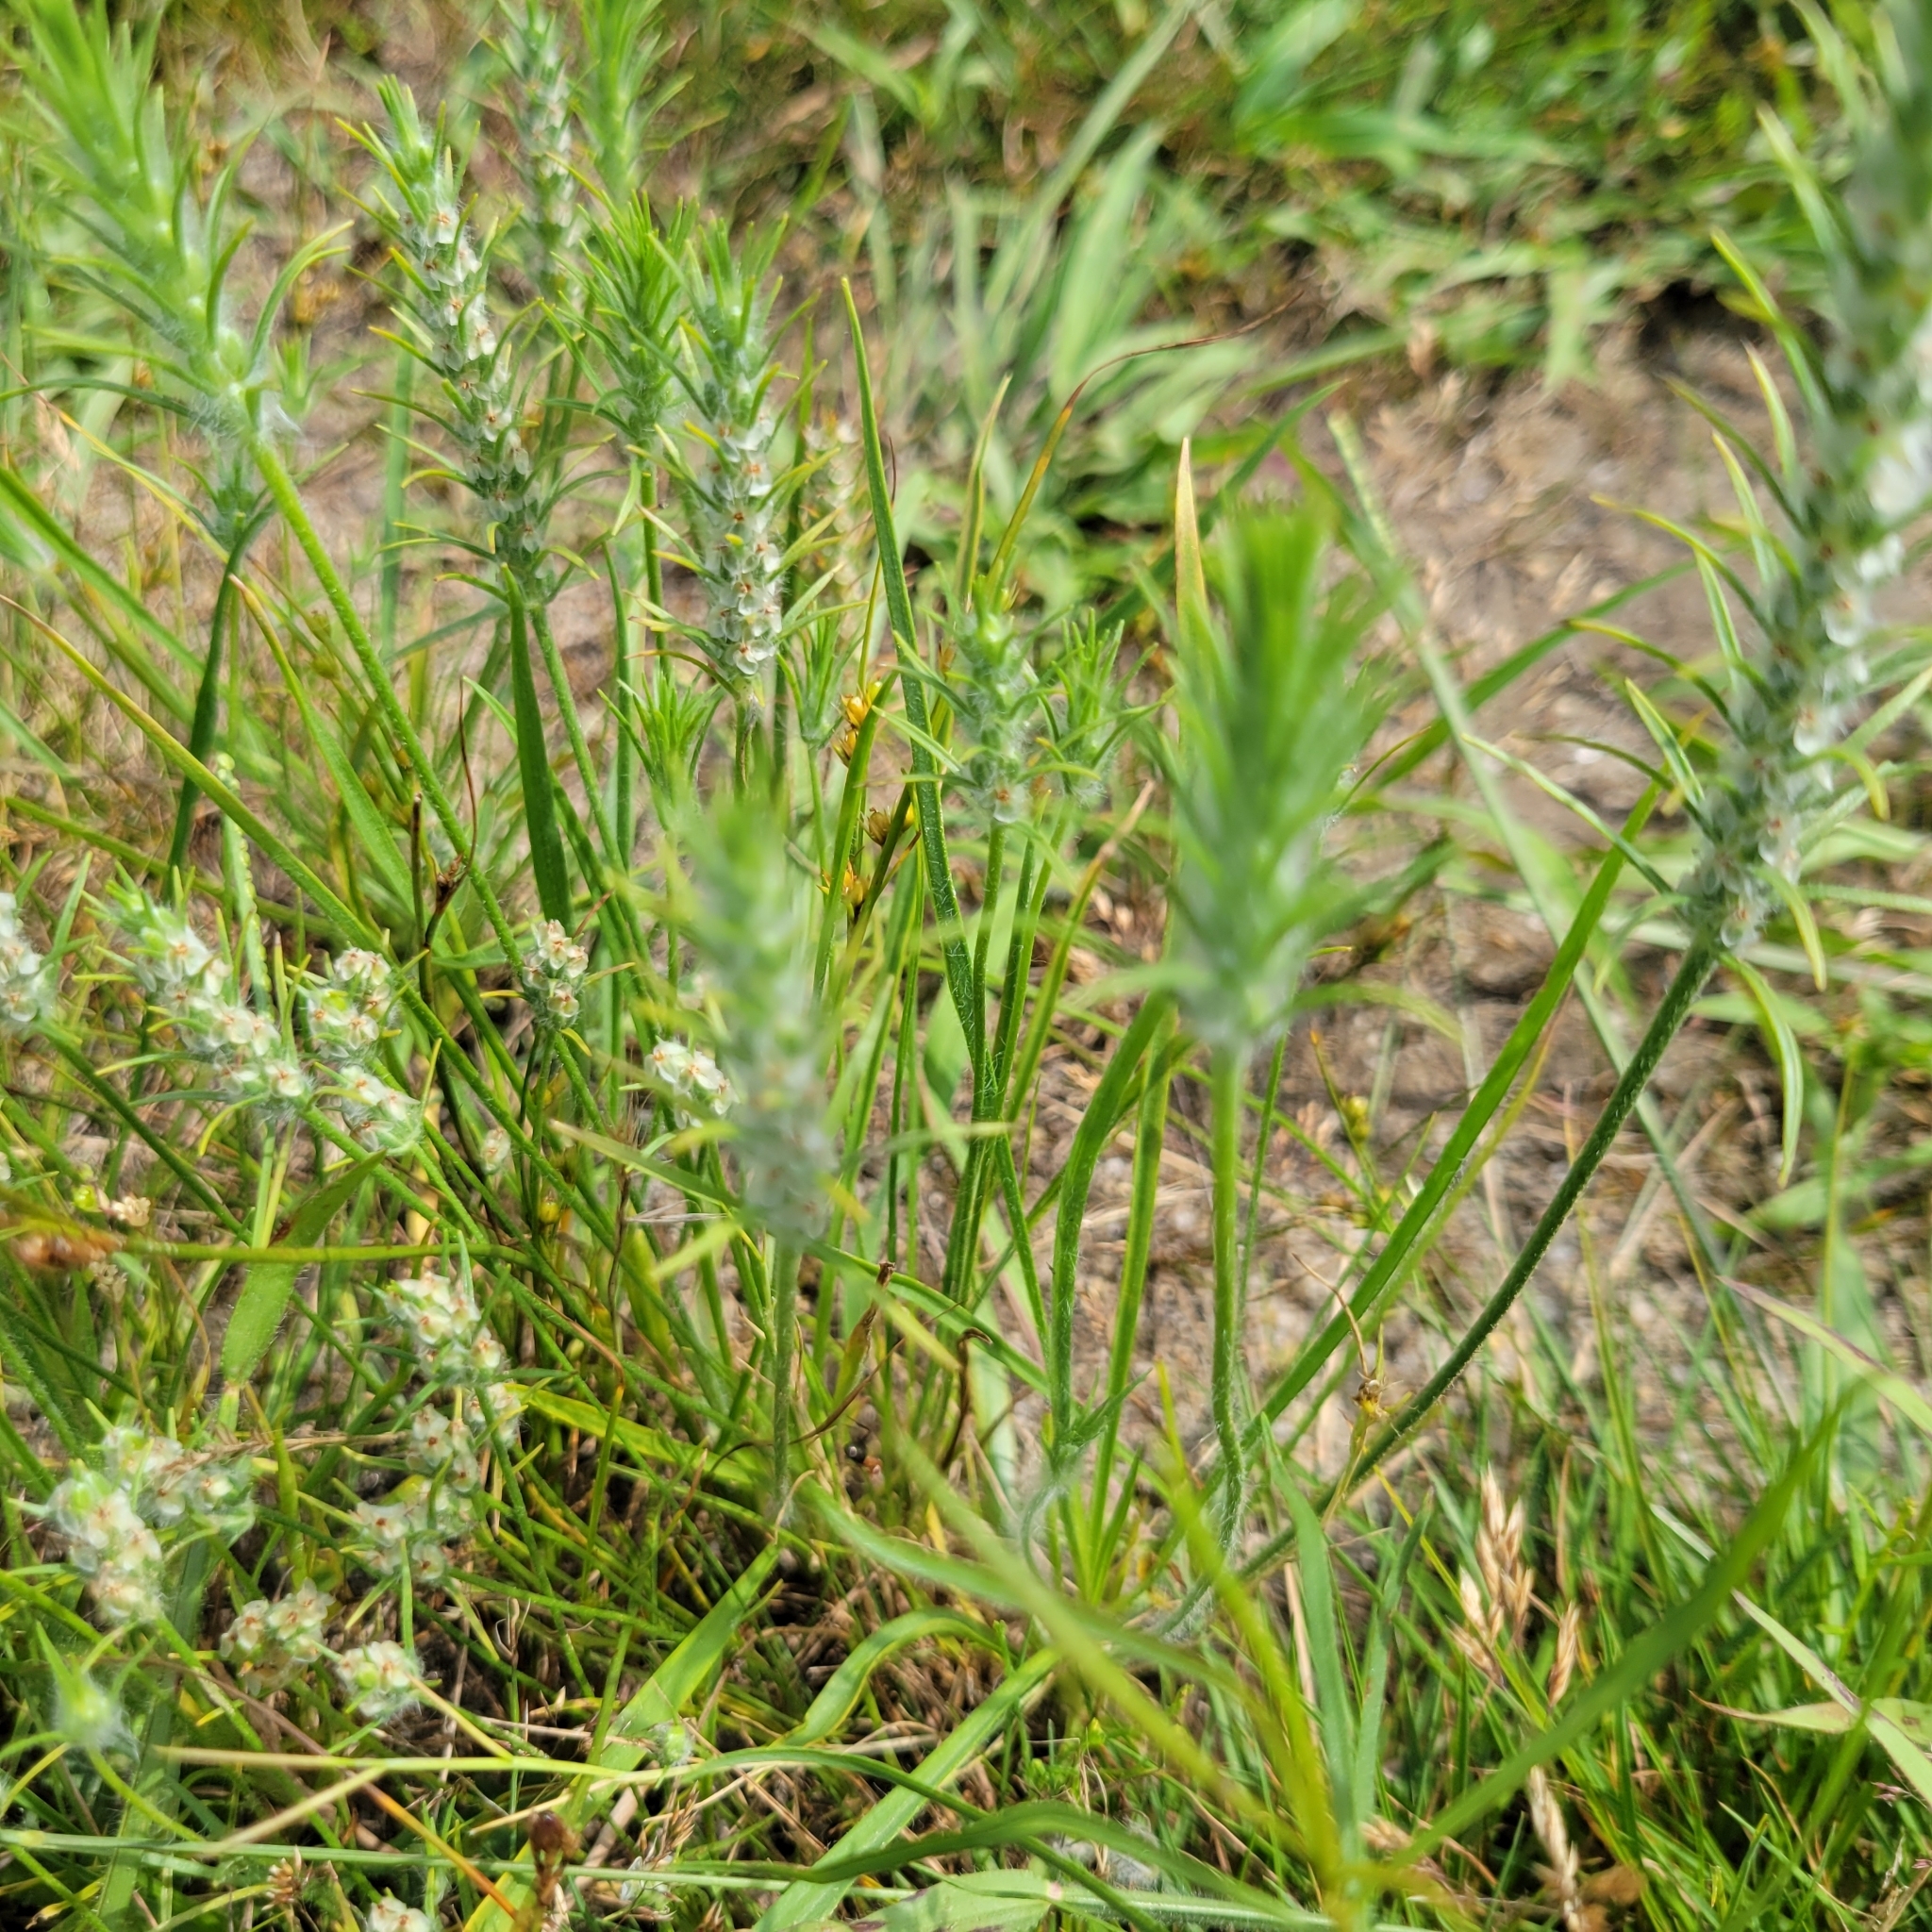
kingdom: Plantae
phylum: Tracheophyta
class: Magnoliopsida
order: Lamiales
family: Plantaginaceae
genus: Plantago
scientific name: Plantago aristata
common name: Bracted plantain
